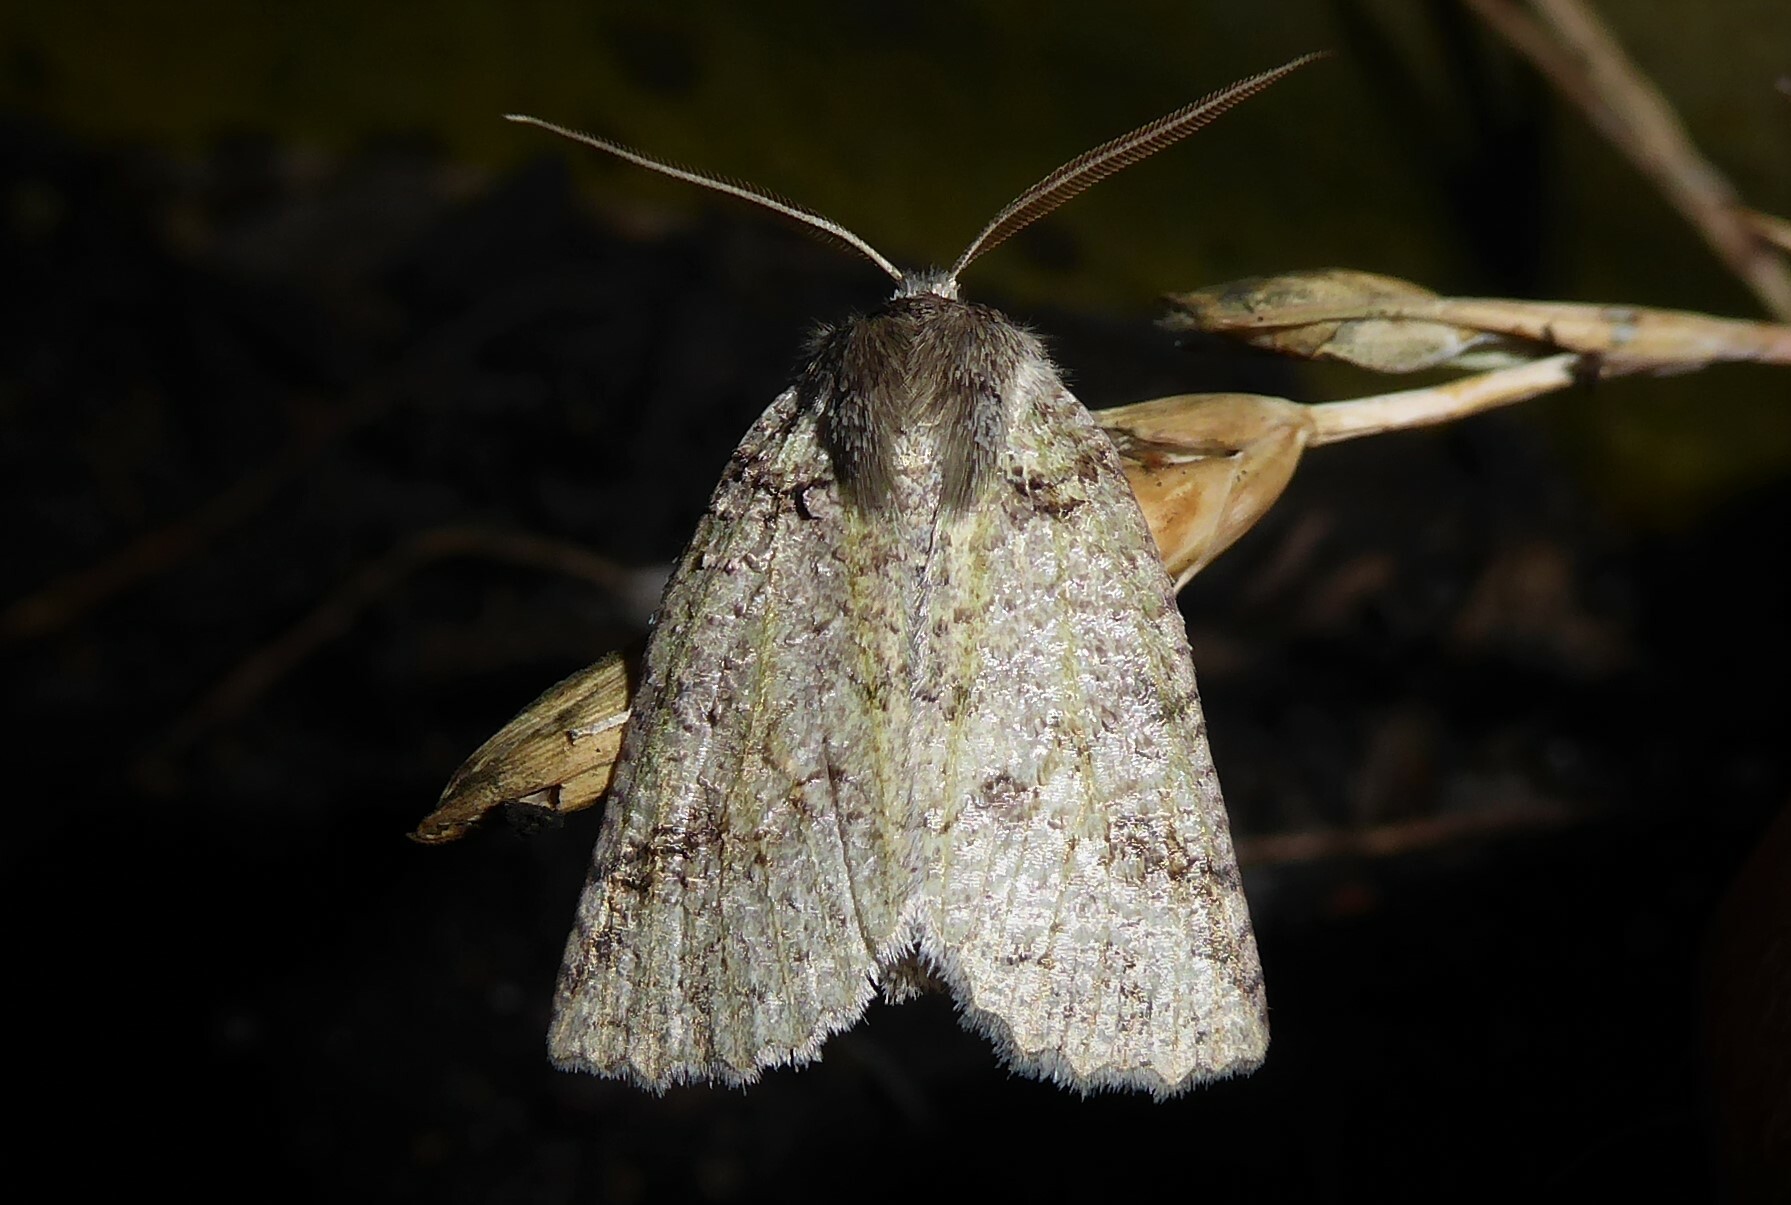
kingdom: Animalia
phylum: Arthropoda
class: Insecta
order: Lepidoptera
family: Geometridae
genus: Declana
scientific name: Declana floccosa
